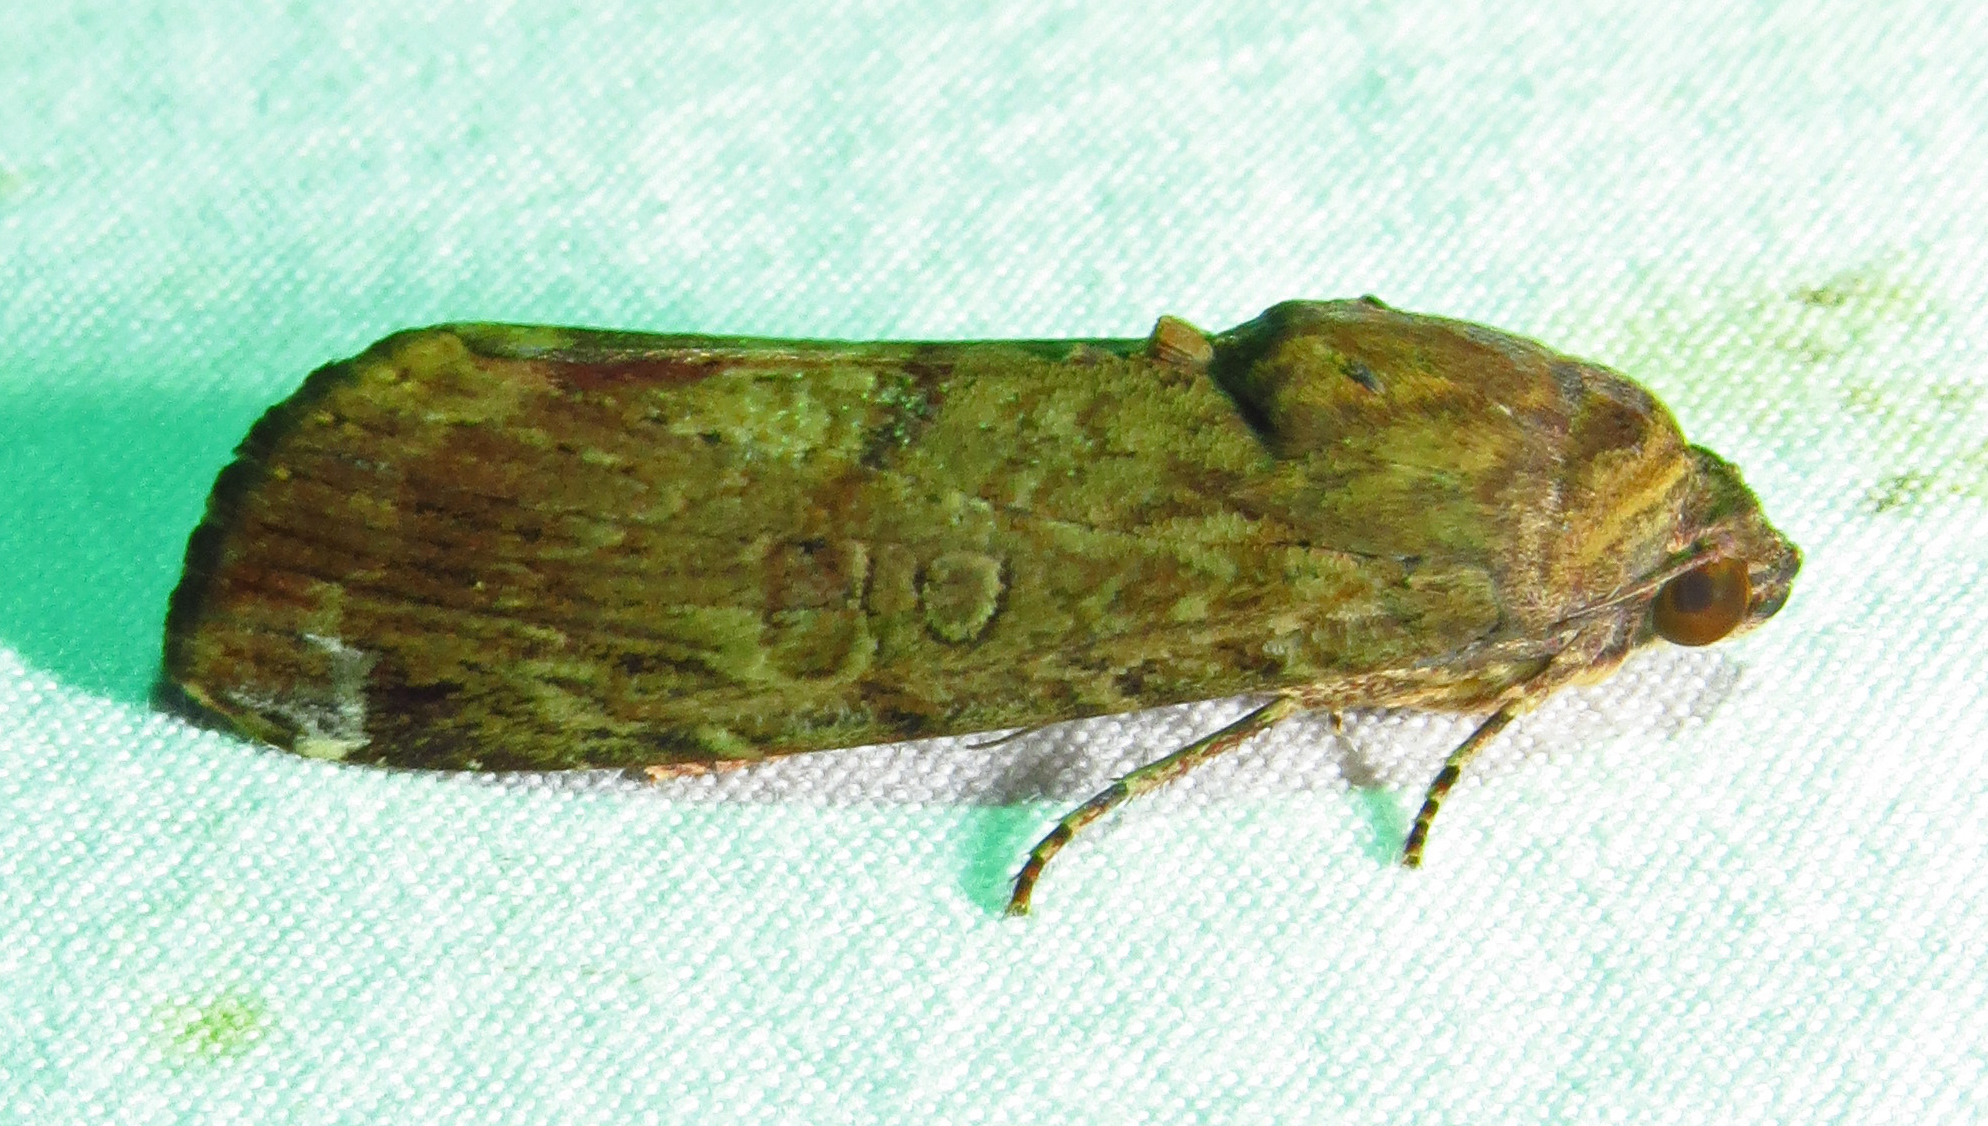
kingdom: Animalia
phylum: Arthropoda
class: Insecta
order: Lepidoptera
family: Noctuidae
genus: Magusa
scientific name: Magusa divaricata
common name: Orb narrow-winged moth
